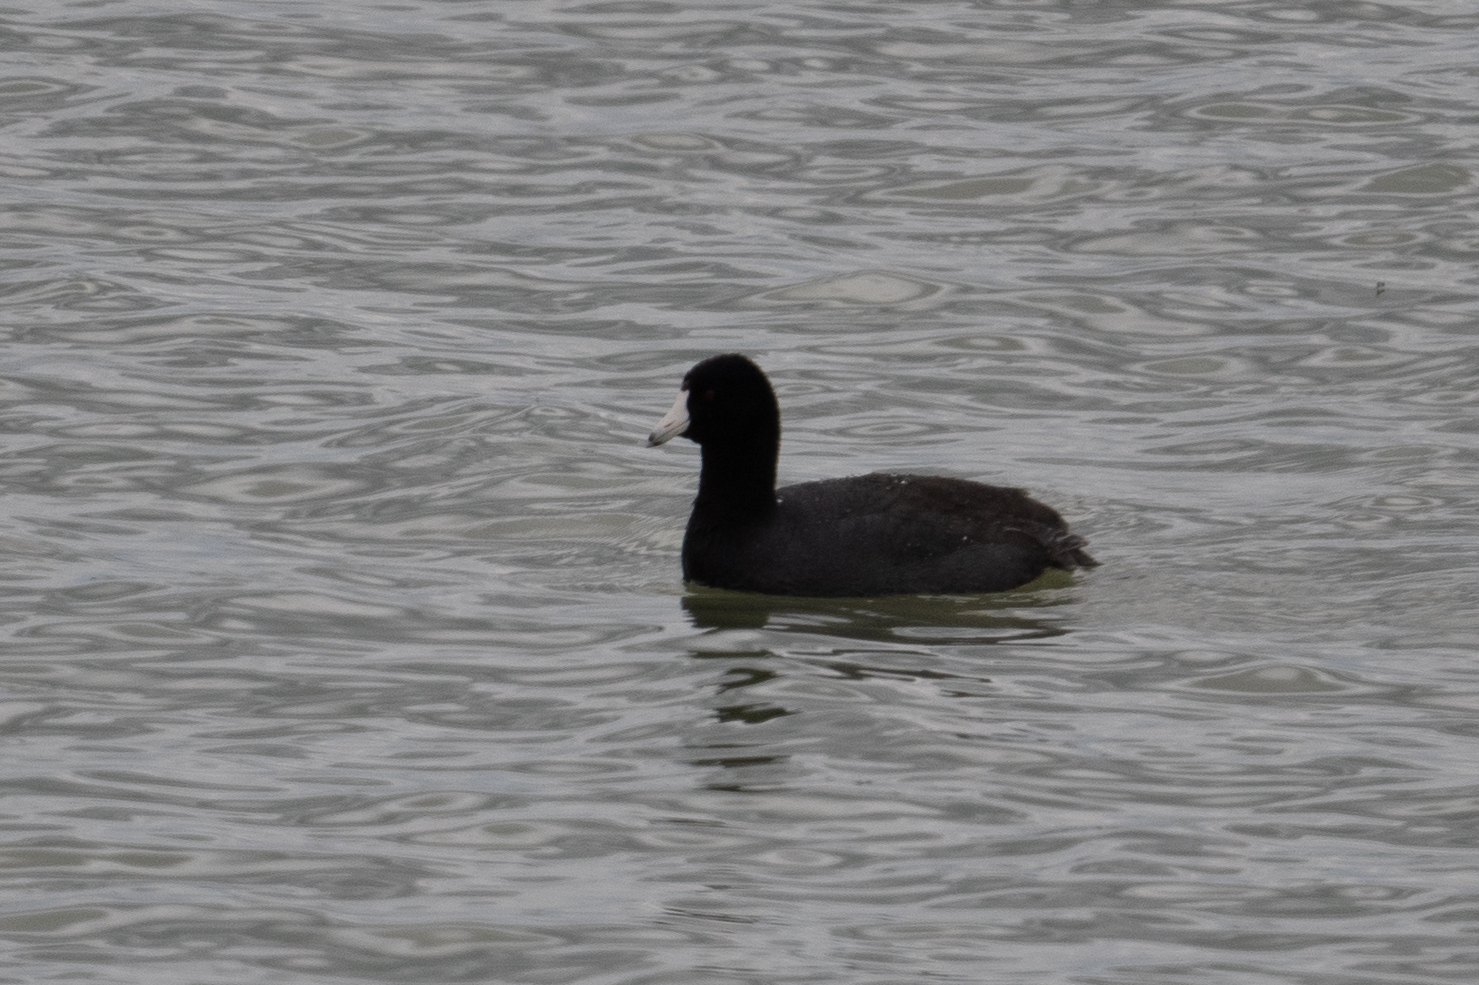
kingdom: Animalia
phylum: Chordata
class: Aves
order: Gruiformes
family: Rallidae
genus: Fulica
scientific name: Fulica americana
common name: American coot
